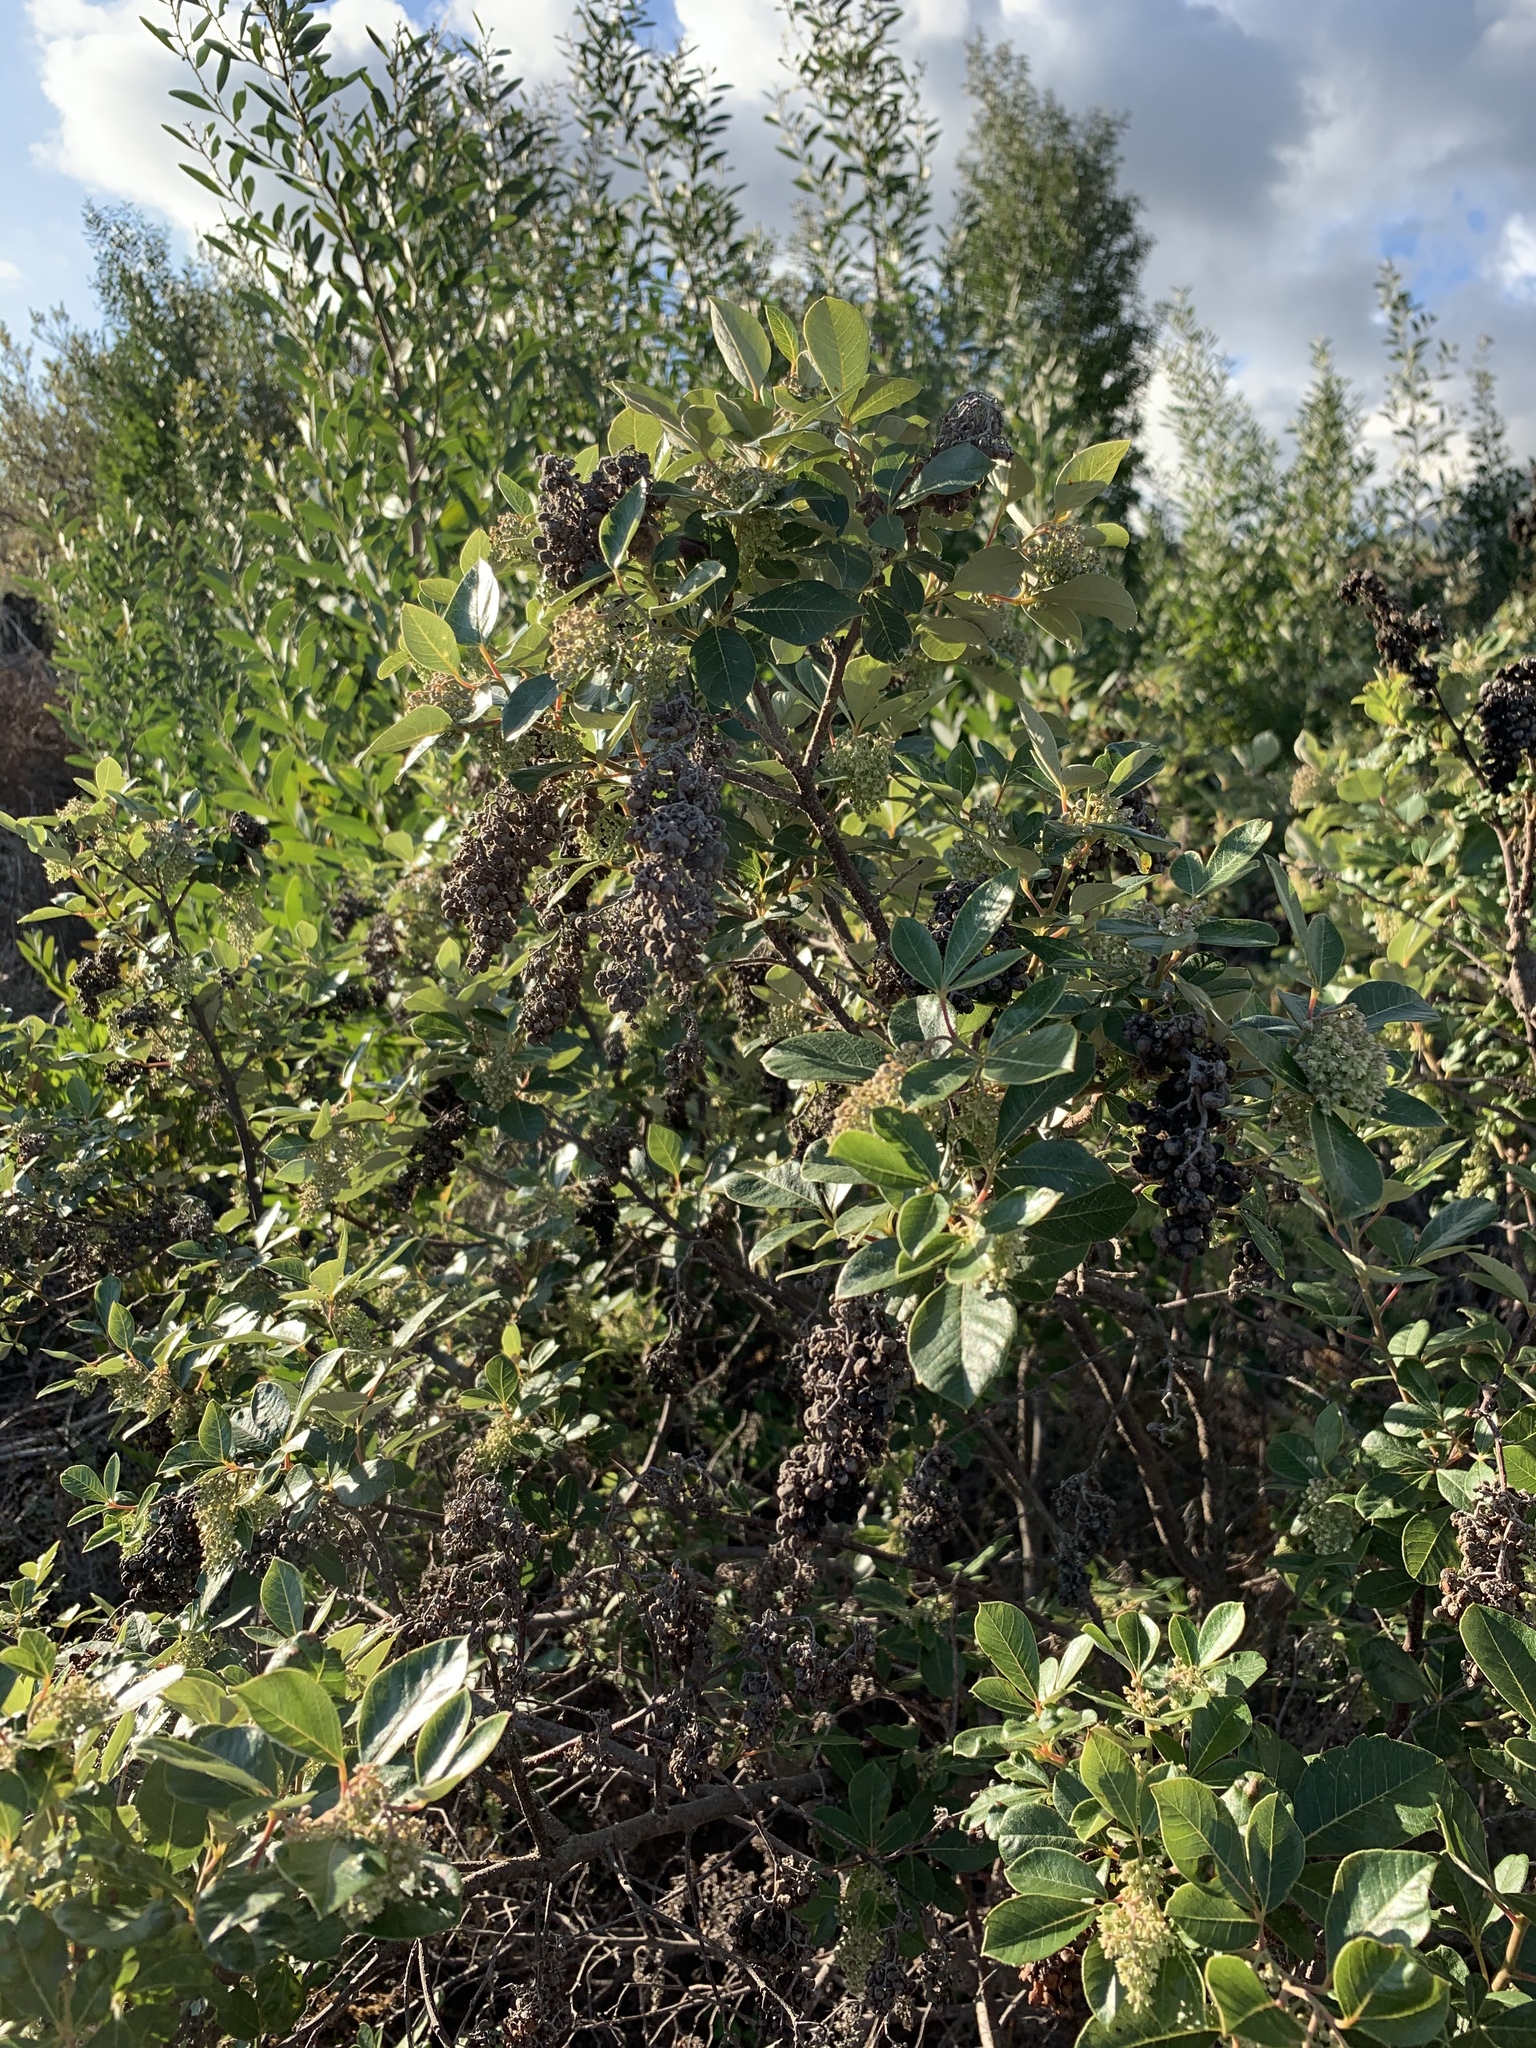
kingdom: Plantae
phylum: Tracheophyta
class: Magnoliopsida
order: Sapindales
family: Anacardiaceae
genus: Searsia
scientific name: Searsia tomentosa
